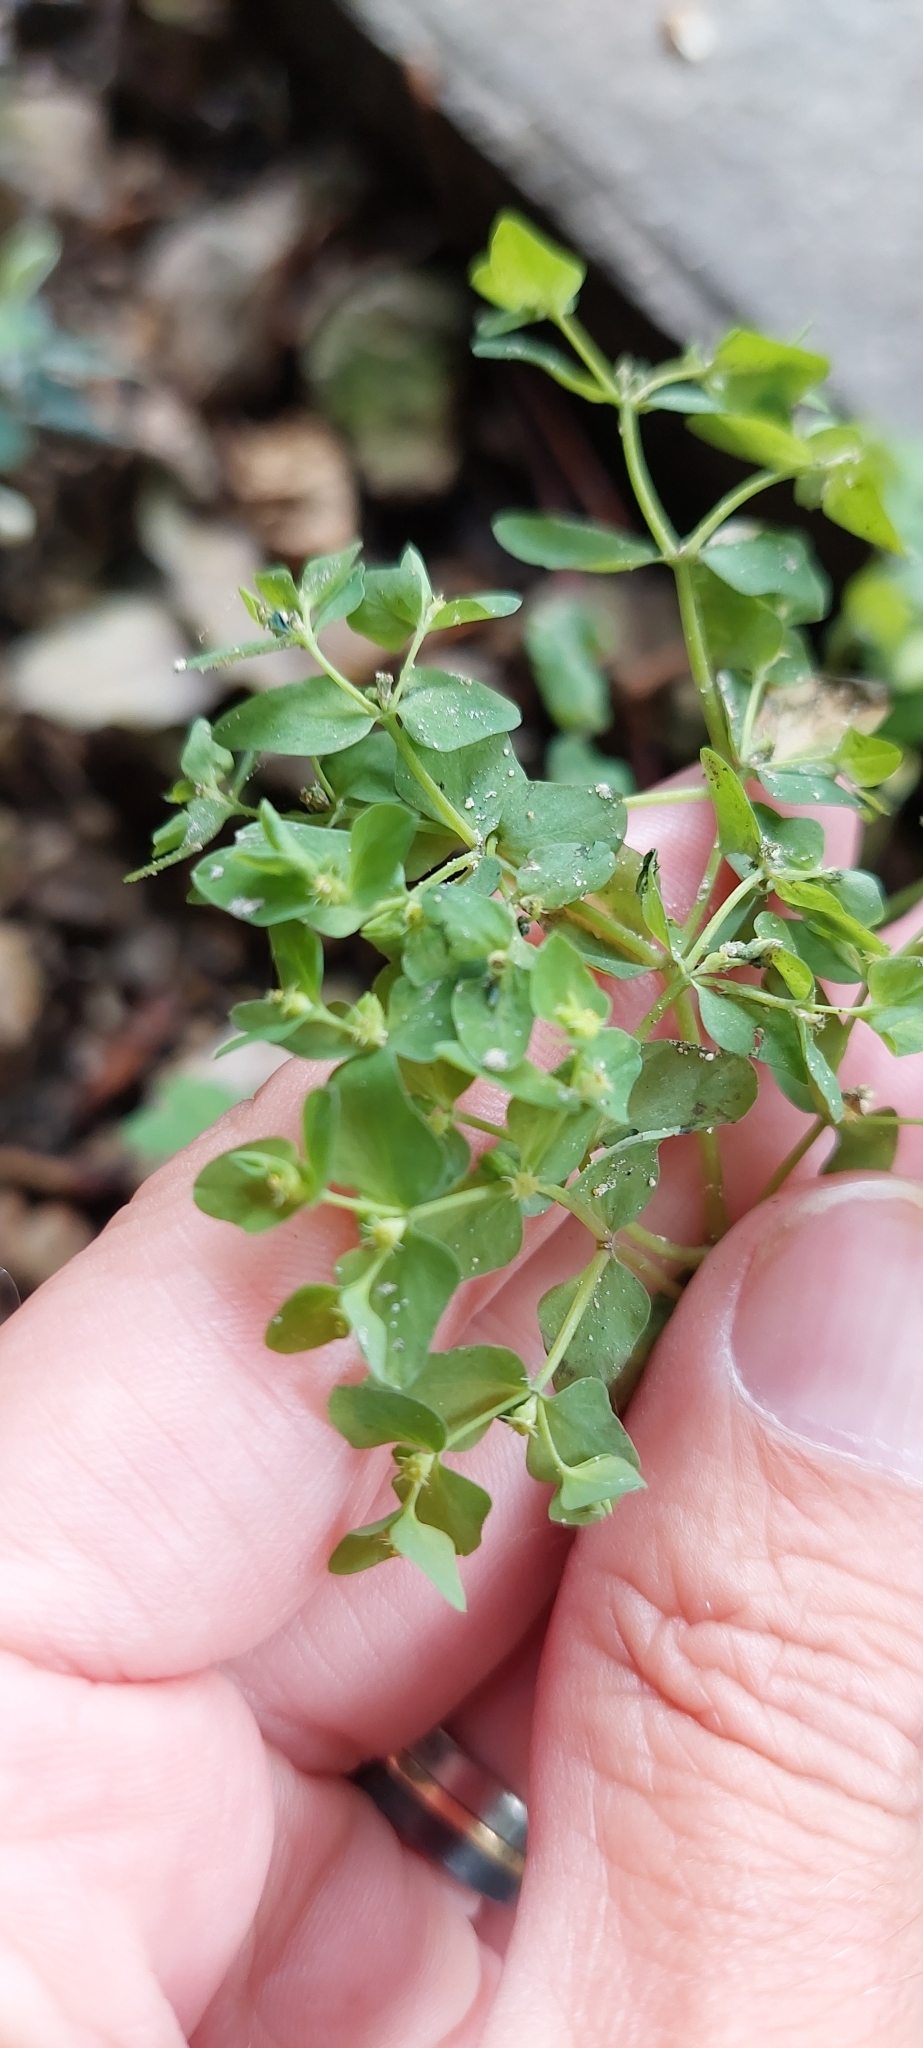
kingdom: Plantae
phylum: Tracheophyta
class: Magnoliopsida
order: Malpighiales
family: Euphorbiaceae
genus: Euphorbia
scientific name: Euphorbia peplus
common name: Petty spurge
